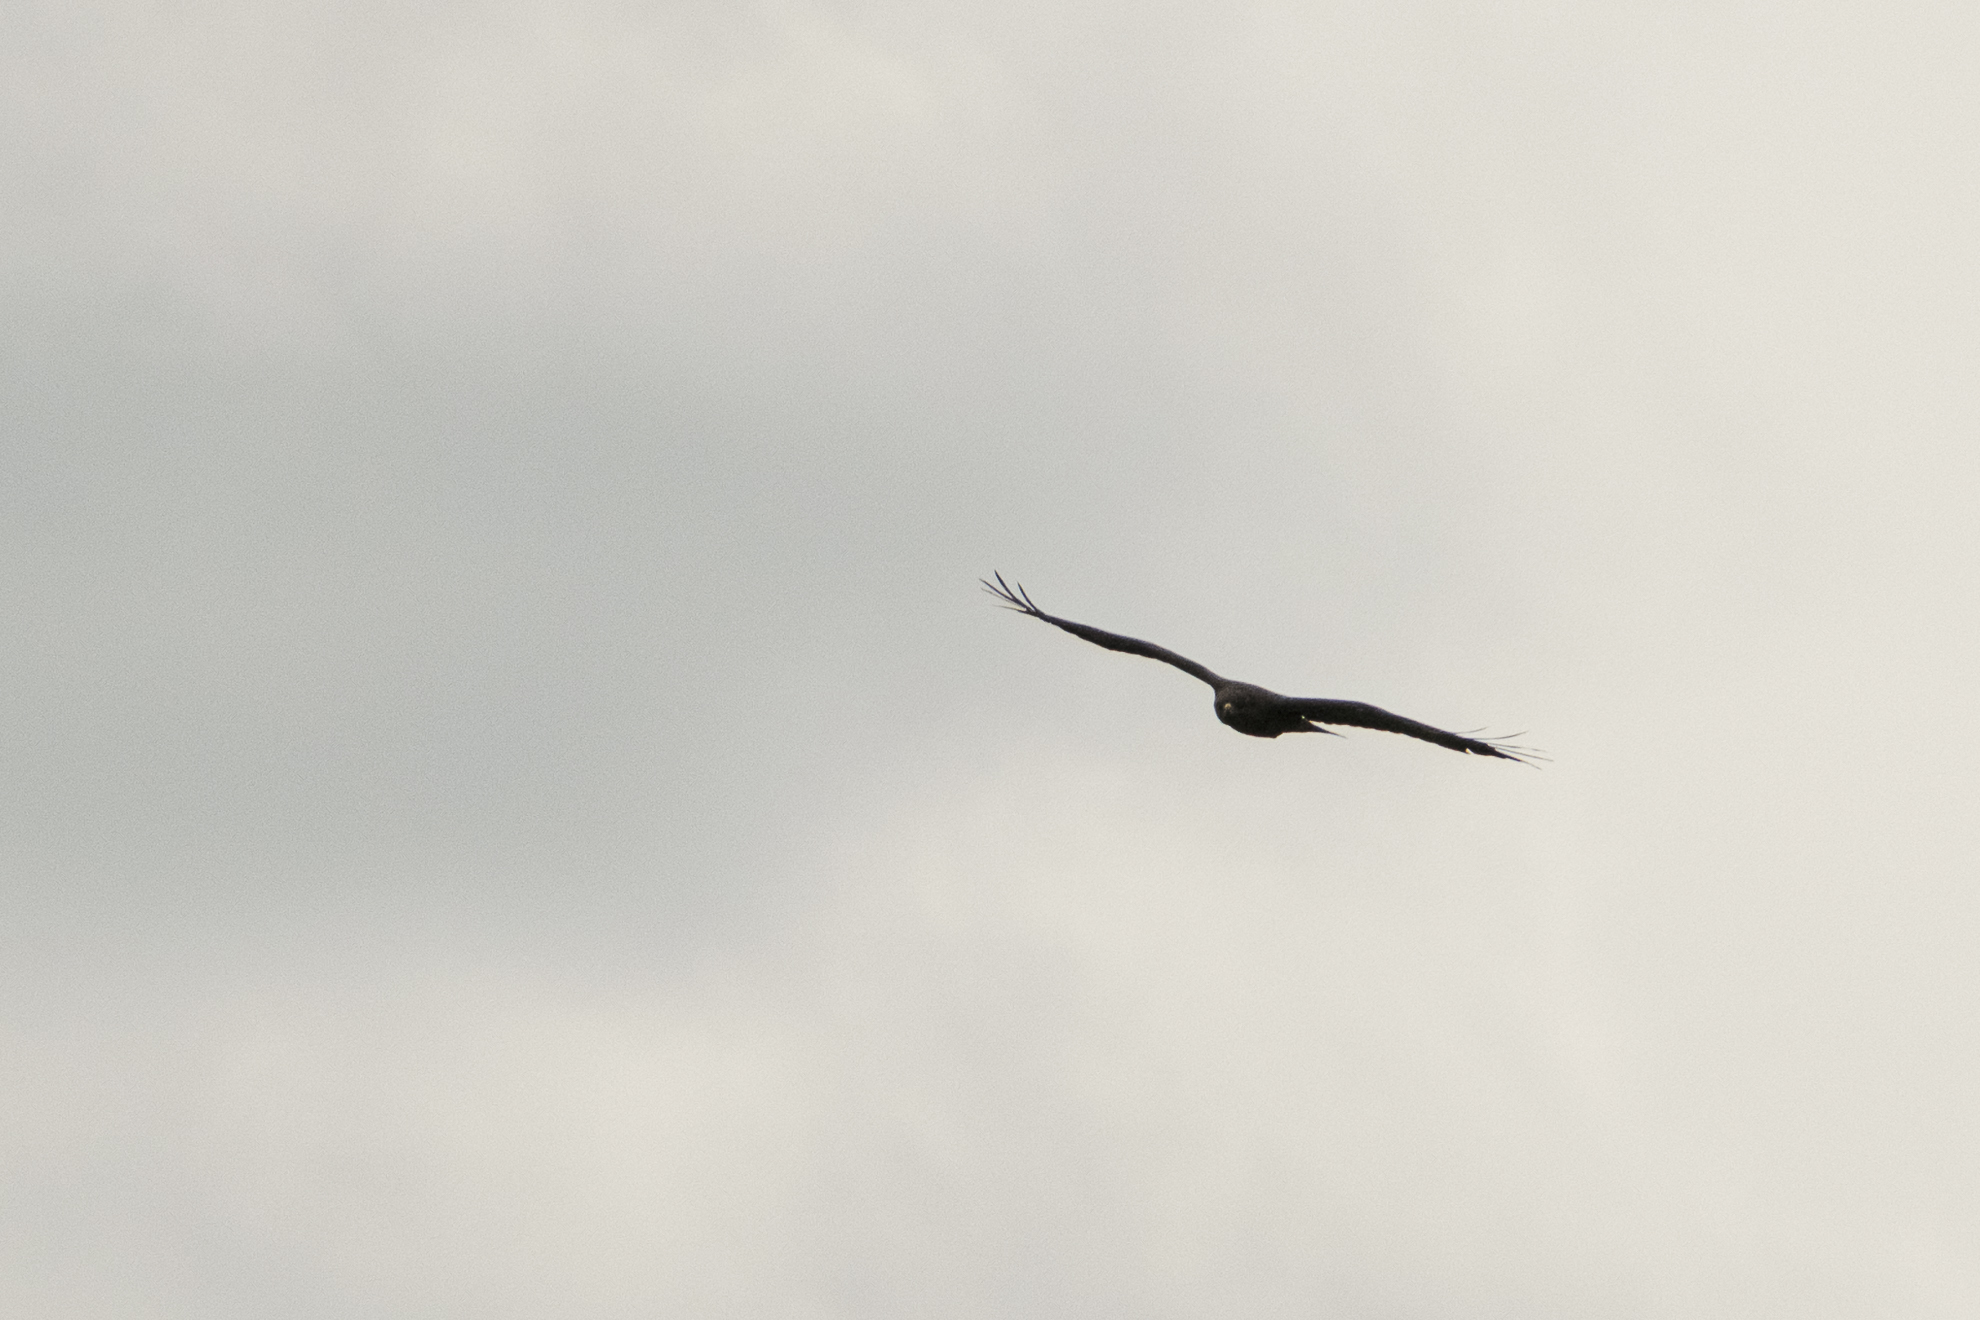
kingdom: Animalia
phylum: Chordata
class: Aves
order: Accipitriformes
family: Accipitridae
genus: Milvus
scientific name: Milvus milvus
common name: Red kite
